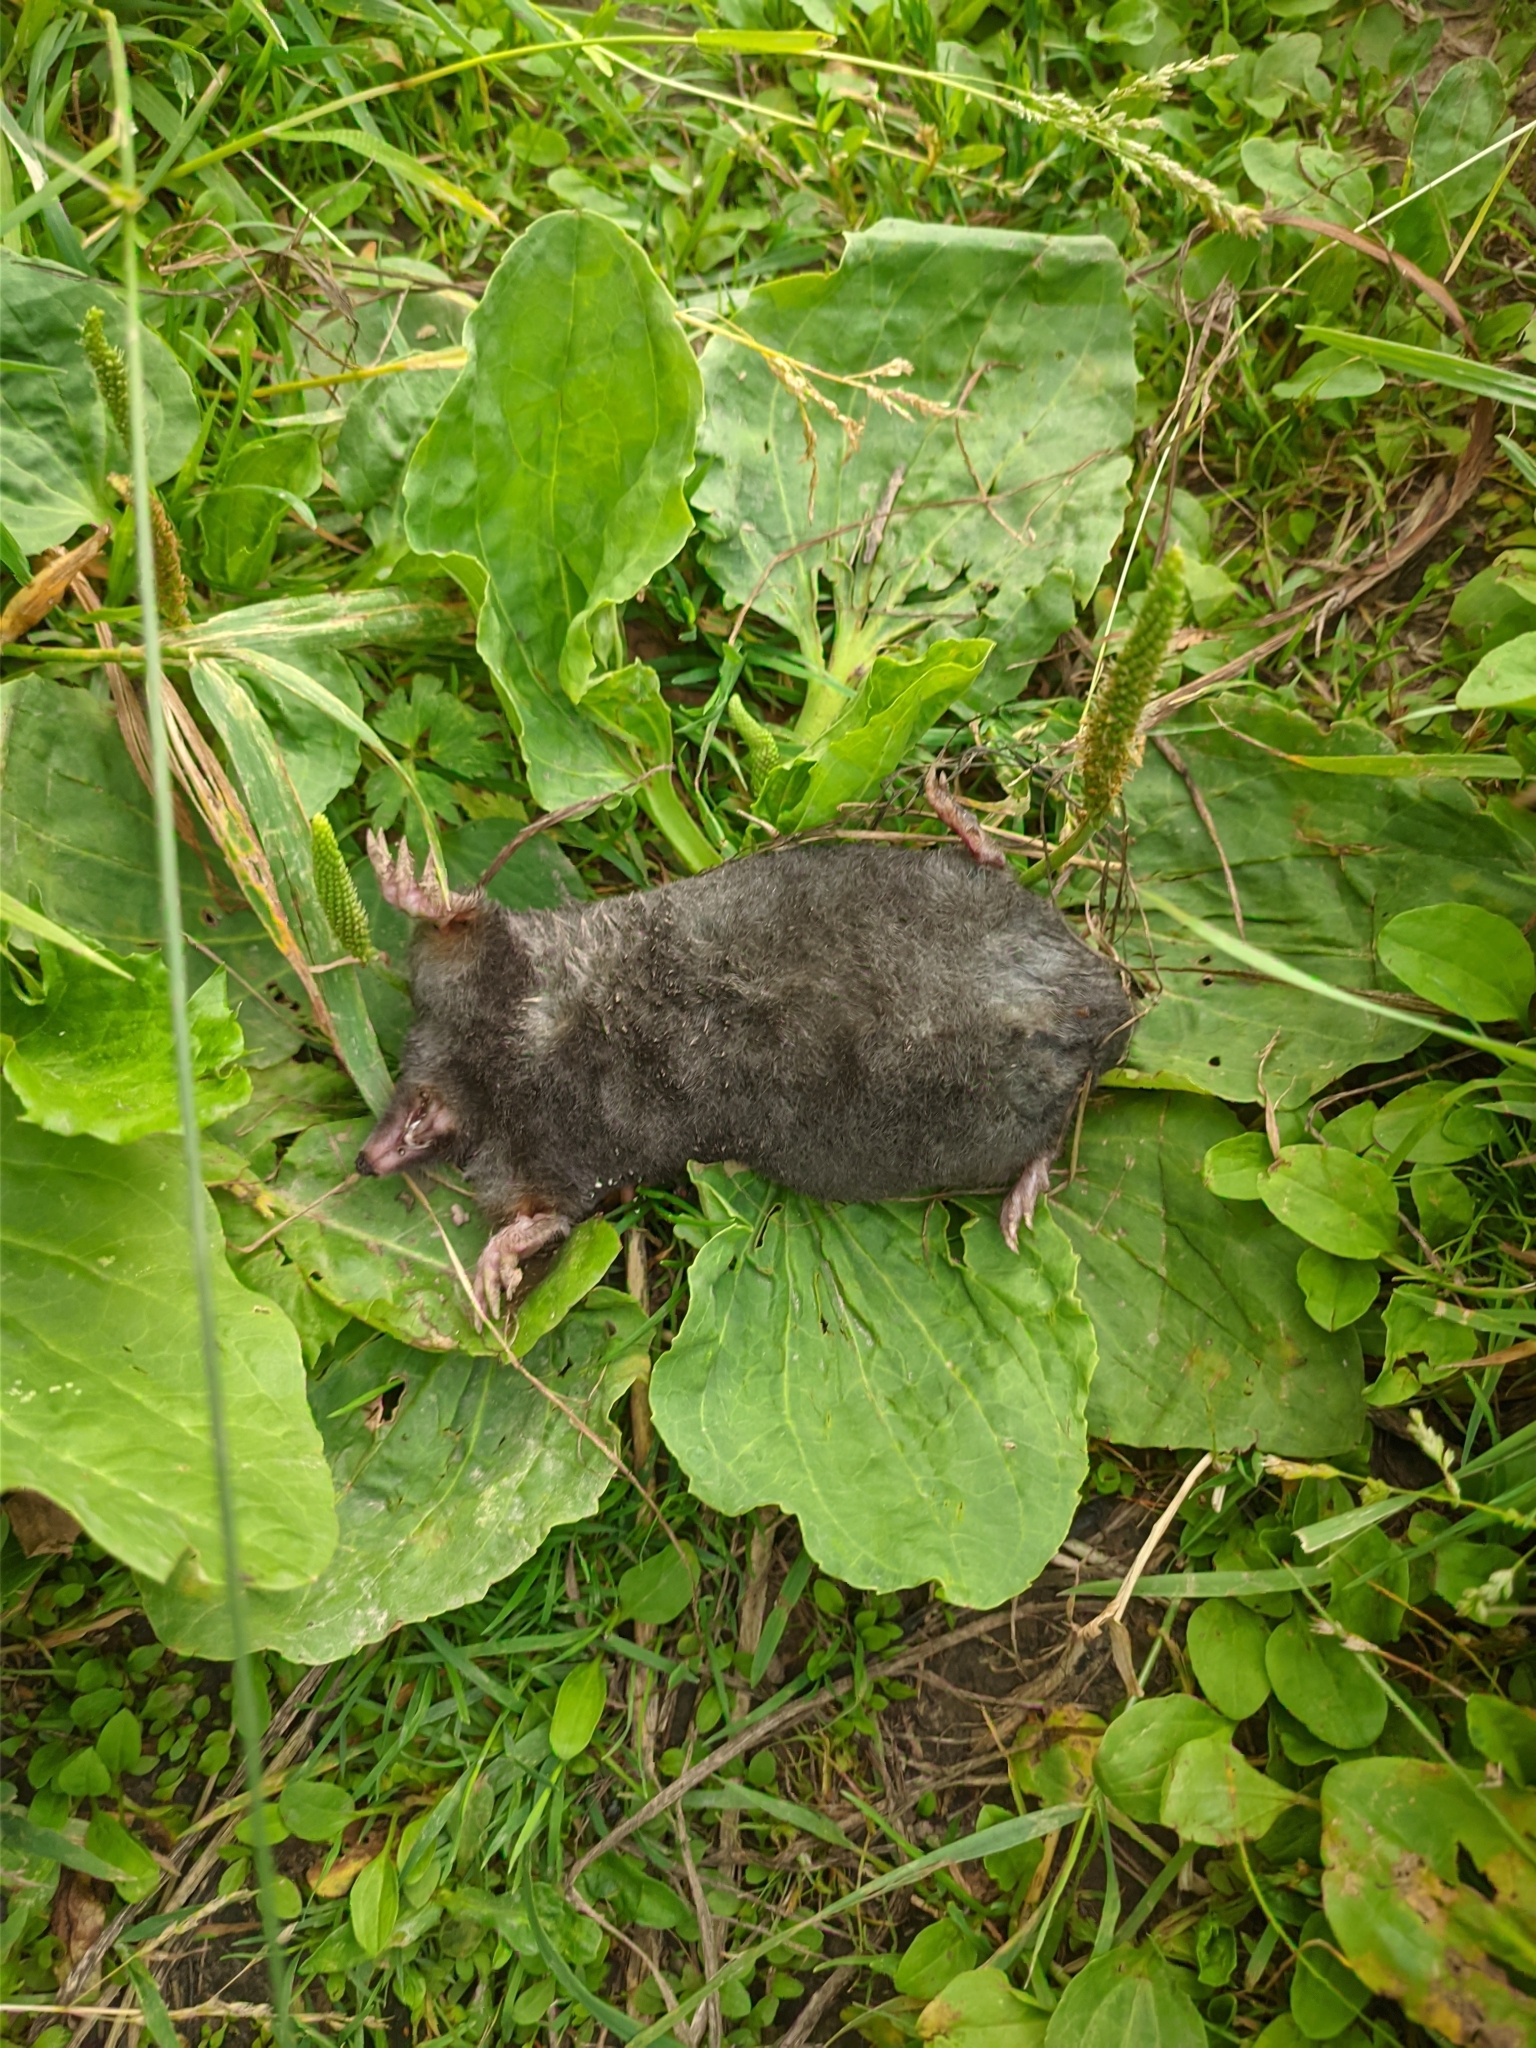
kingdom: Animalia
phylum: Chordata
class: Mammalia
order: Soricomorpha
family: Talpidae
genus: Talpa
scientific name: Talpa europaea
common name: European mole
